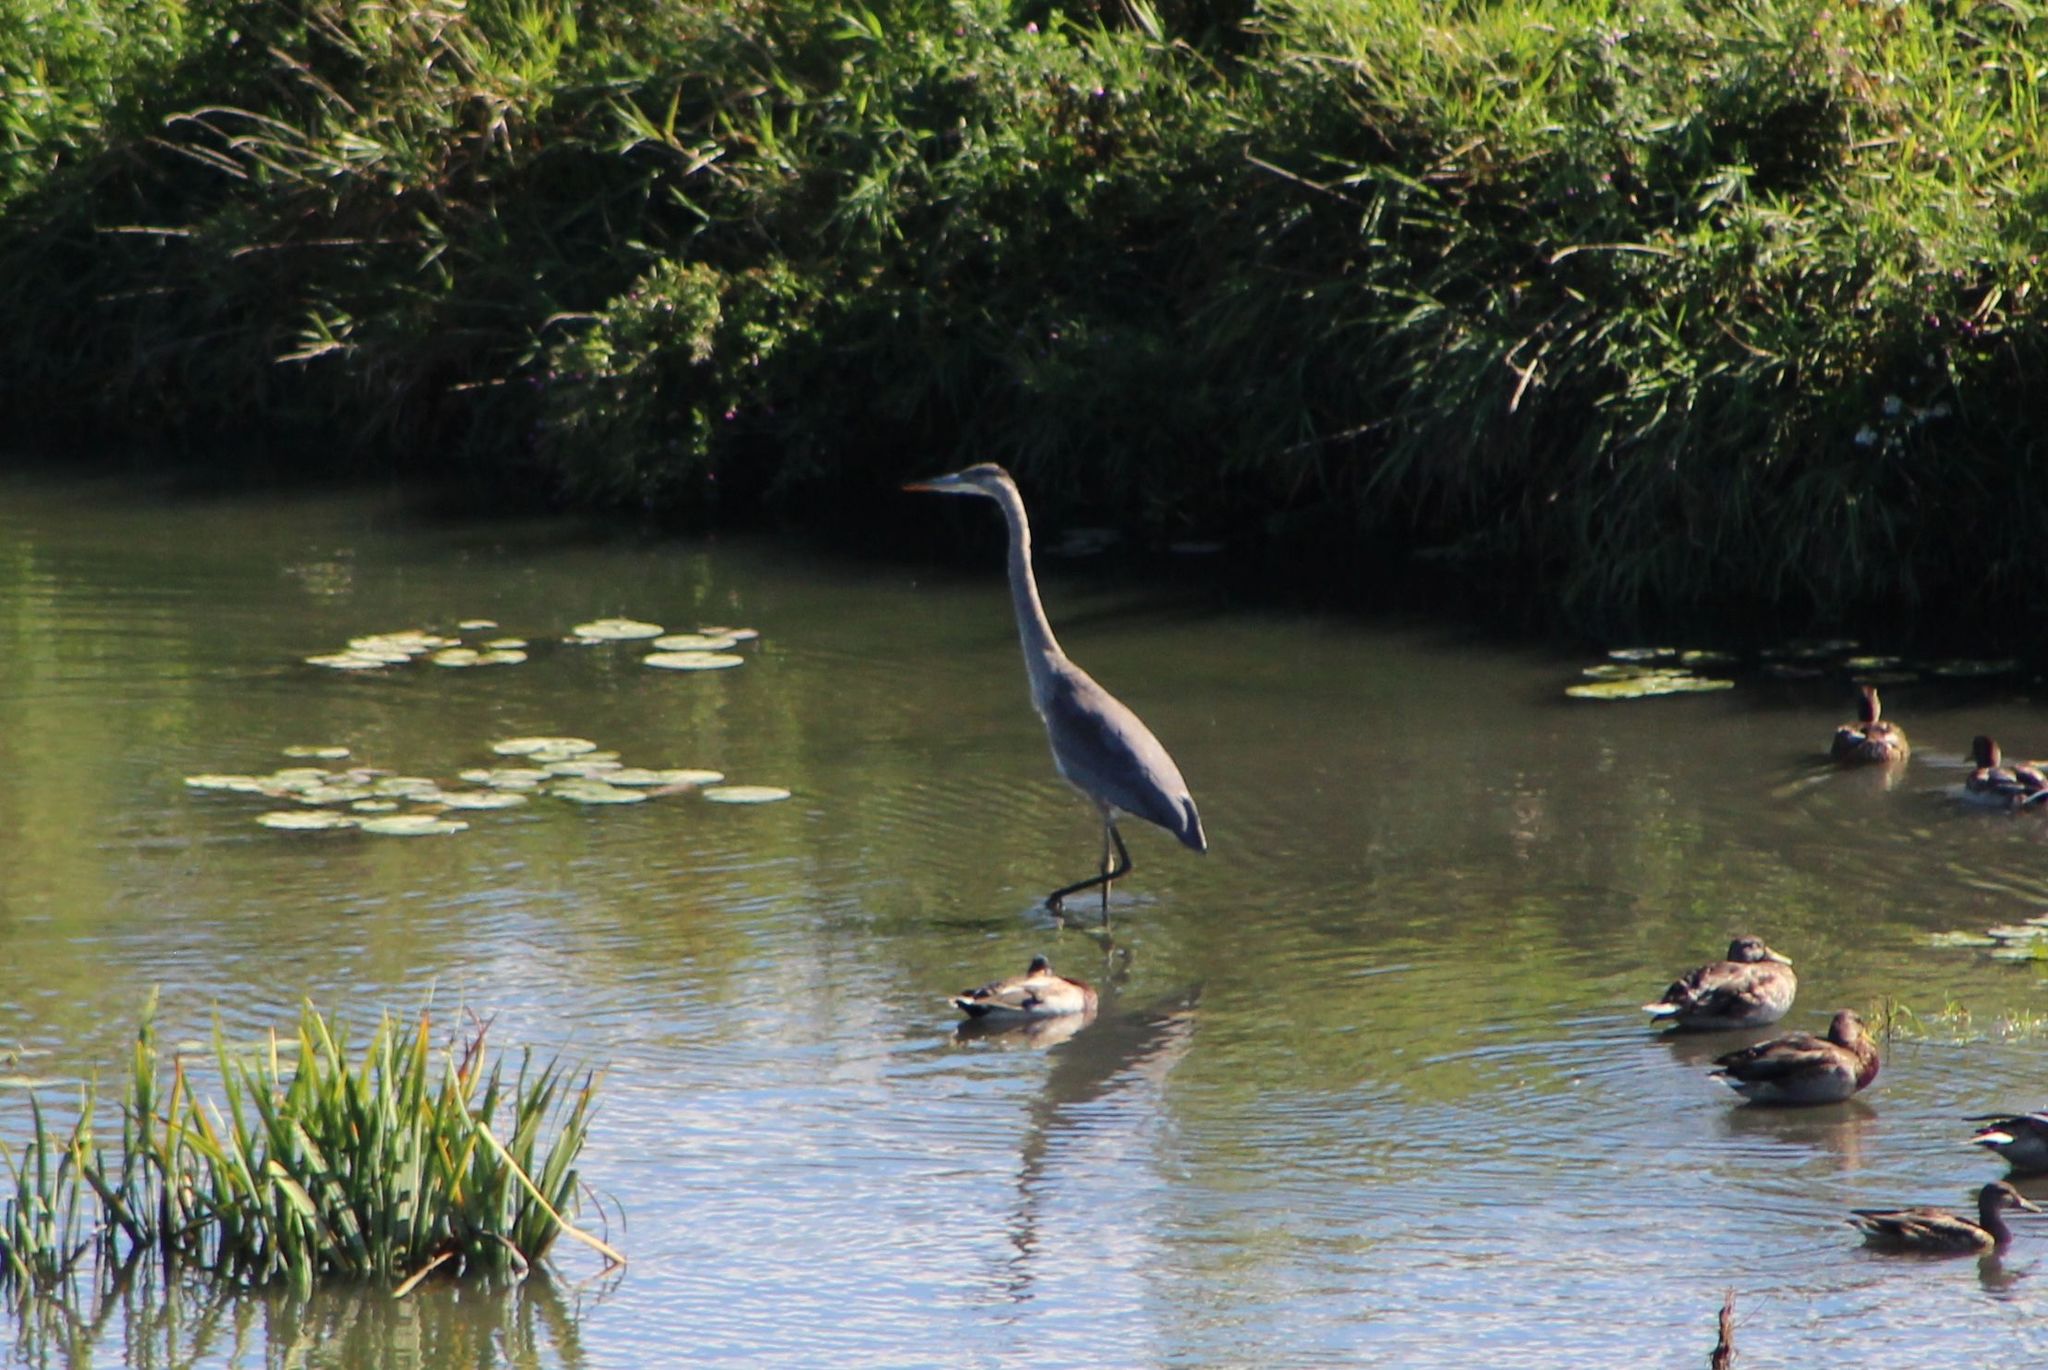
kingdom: Animalia
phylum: Chordata
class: Aves
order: Pelecaniformes
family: Ardeidae
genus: Ardea
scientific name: Ardea herodias
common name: Great blue heron
